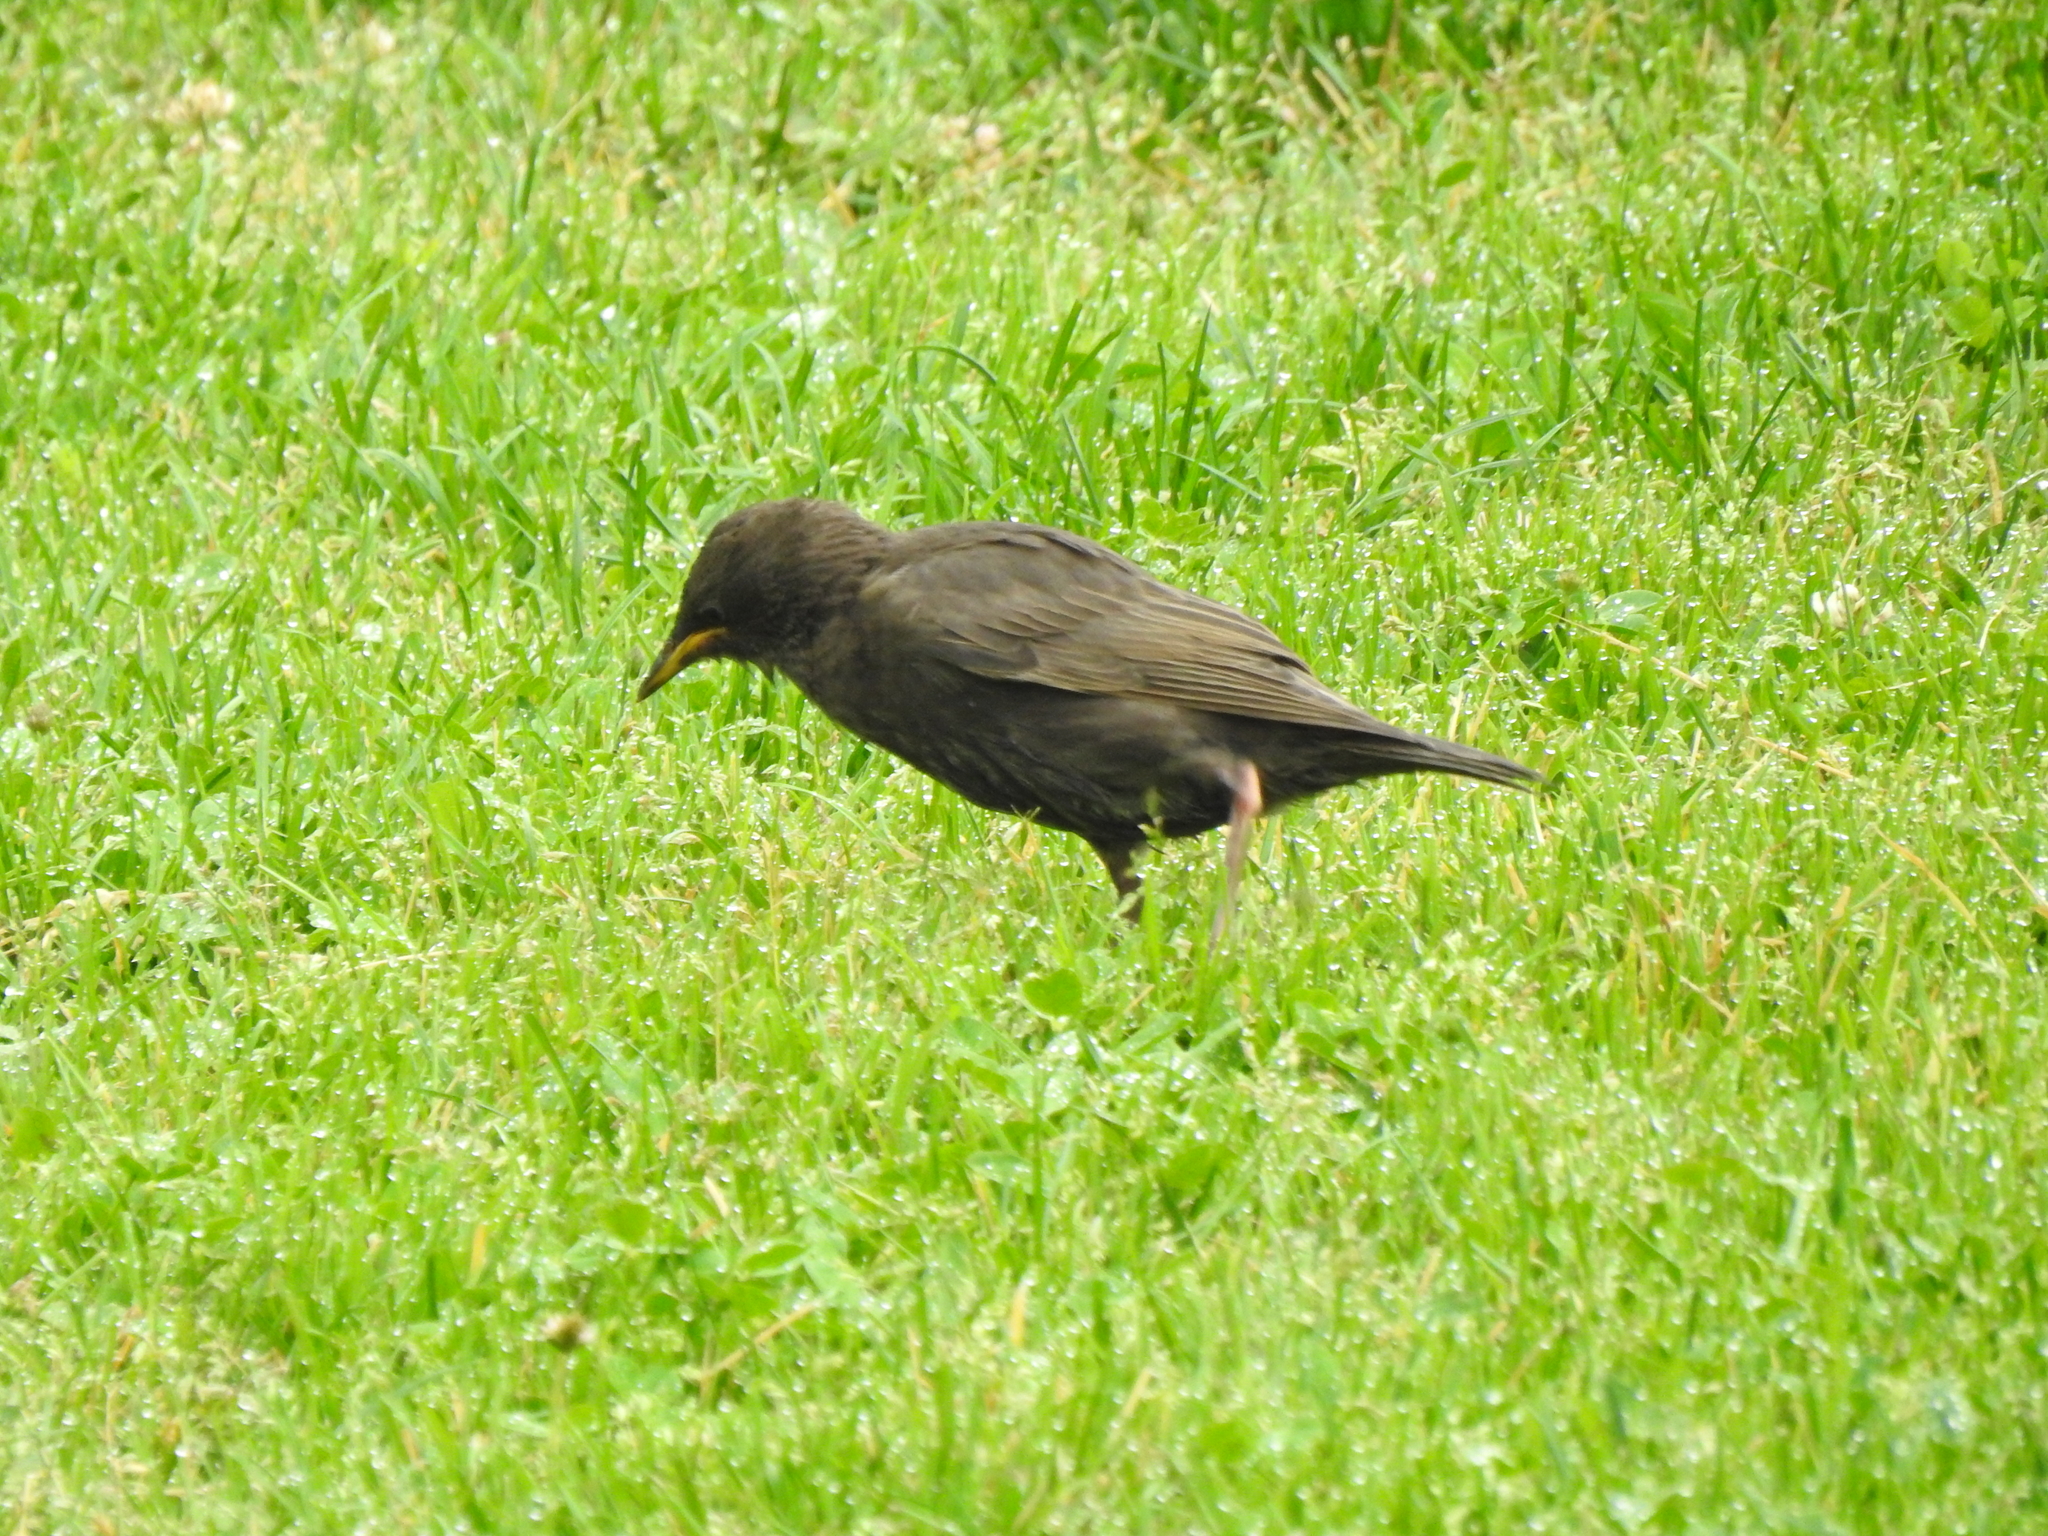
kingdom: Animalia
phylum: Chordata
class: Aves
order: Passeriformes
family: Sturnidae
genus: Sturnus
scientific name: Sturnus vulgaris
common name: Common starling
